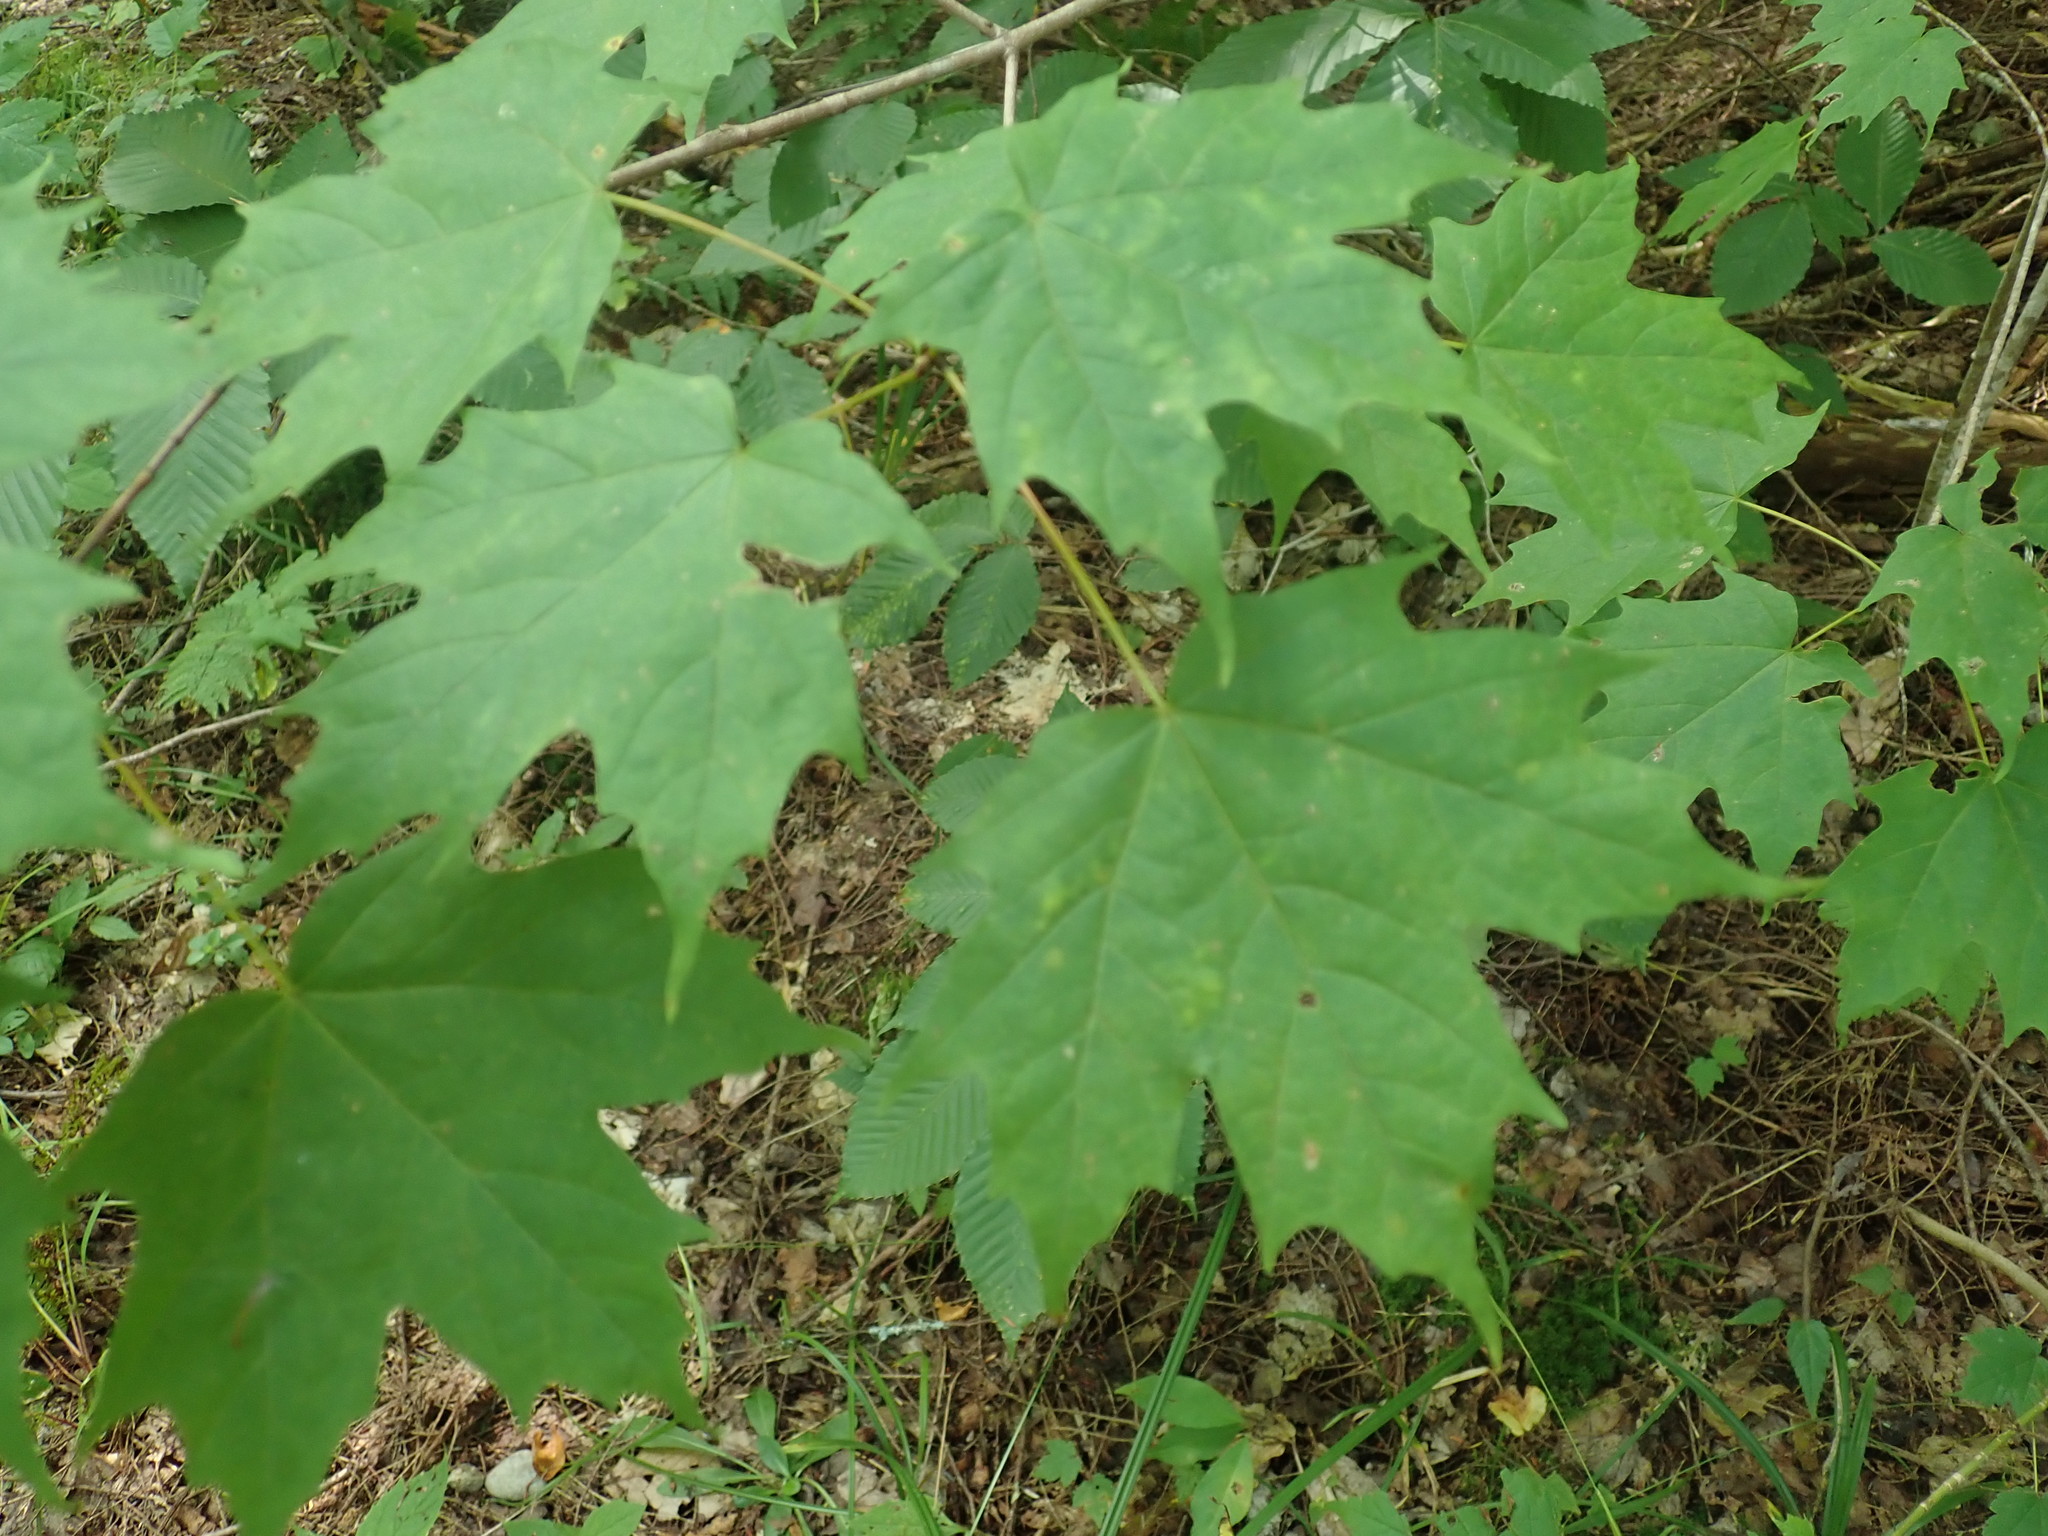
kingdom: Plantae
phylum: Tracheophyta
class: Magnoliopsida
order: Sapindales
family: Sapindaceae
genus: Acer
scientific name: Acer saccharum
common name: Sugar maple
